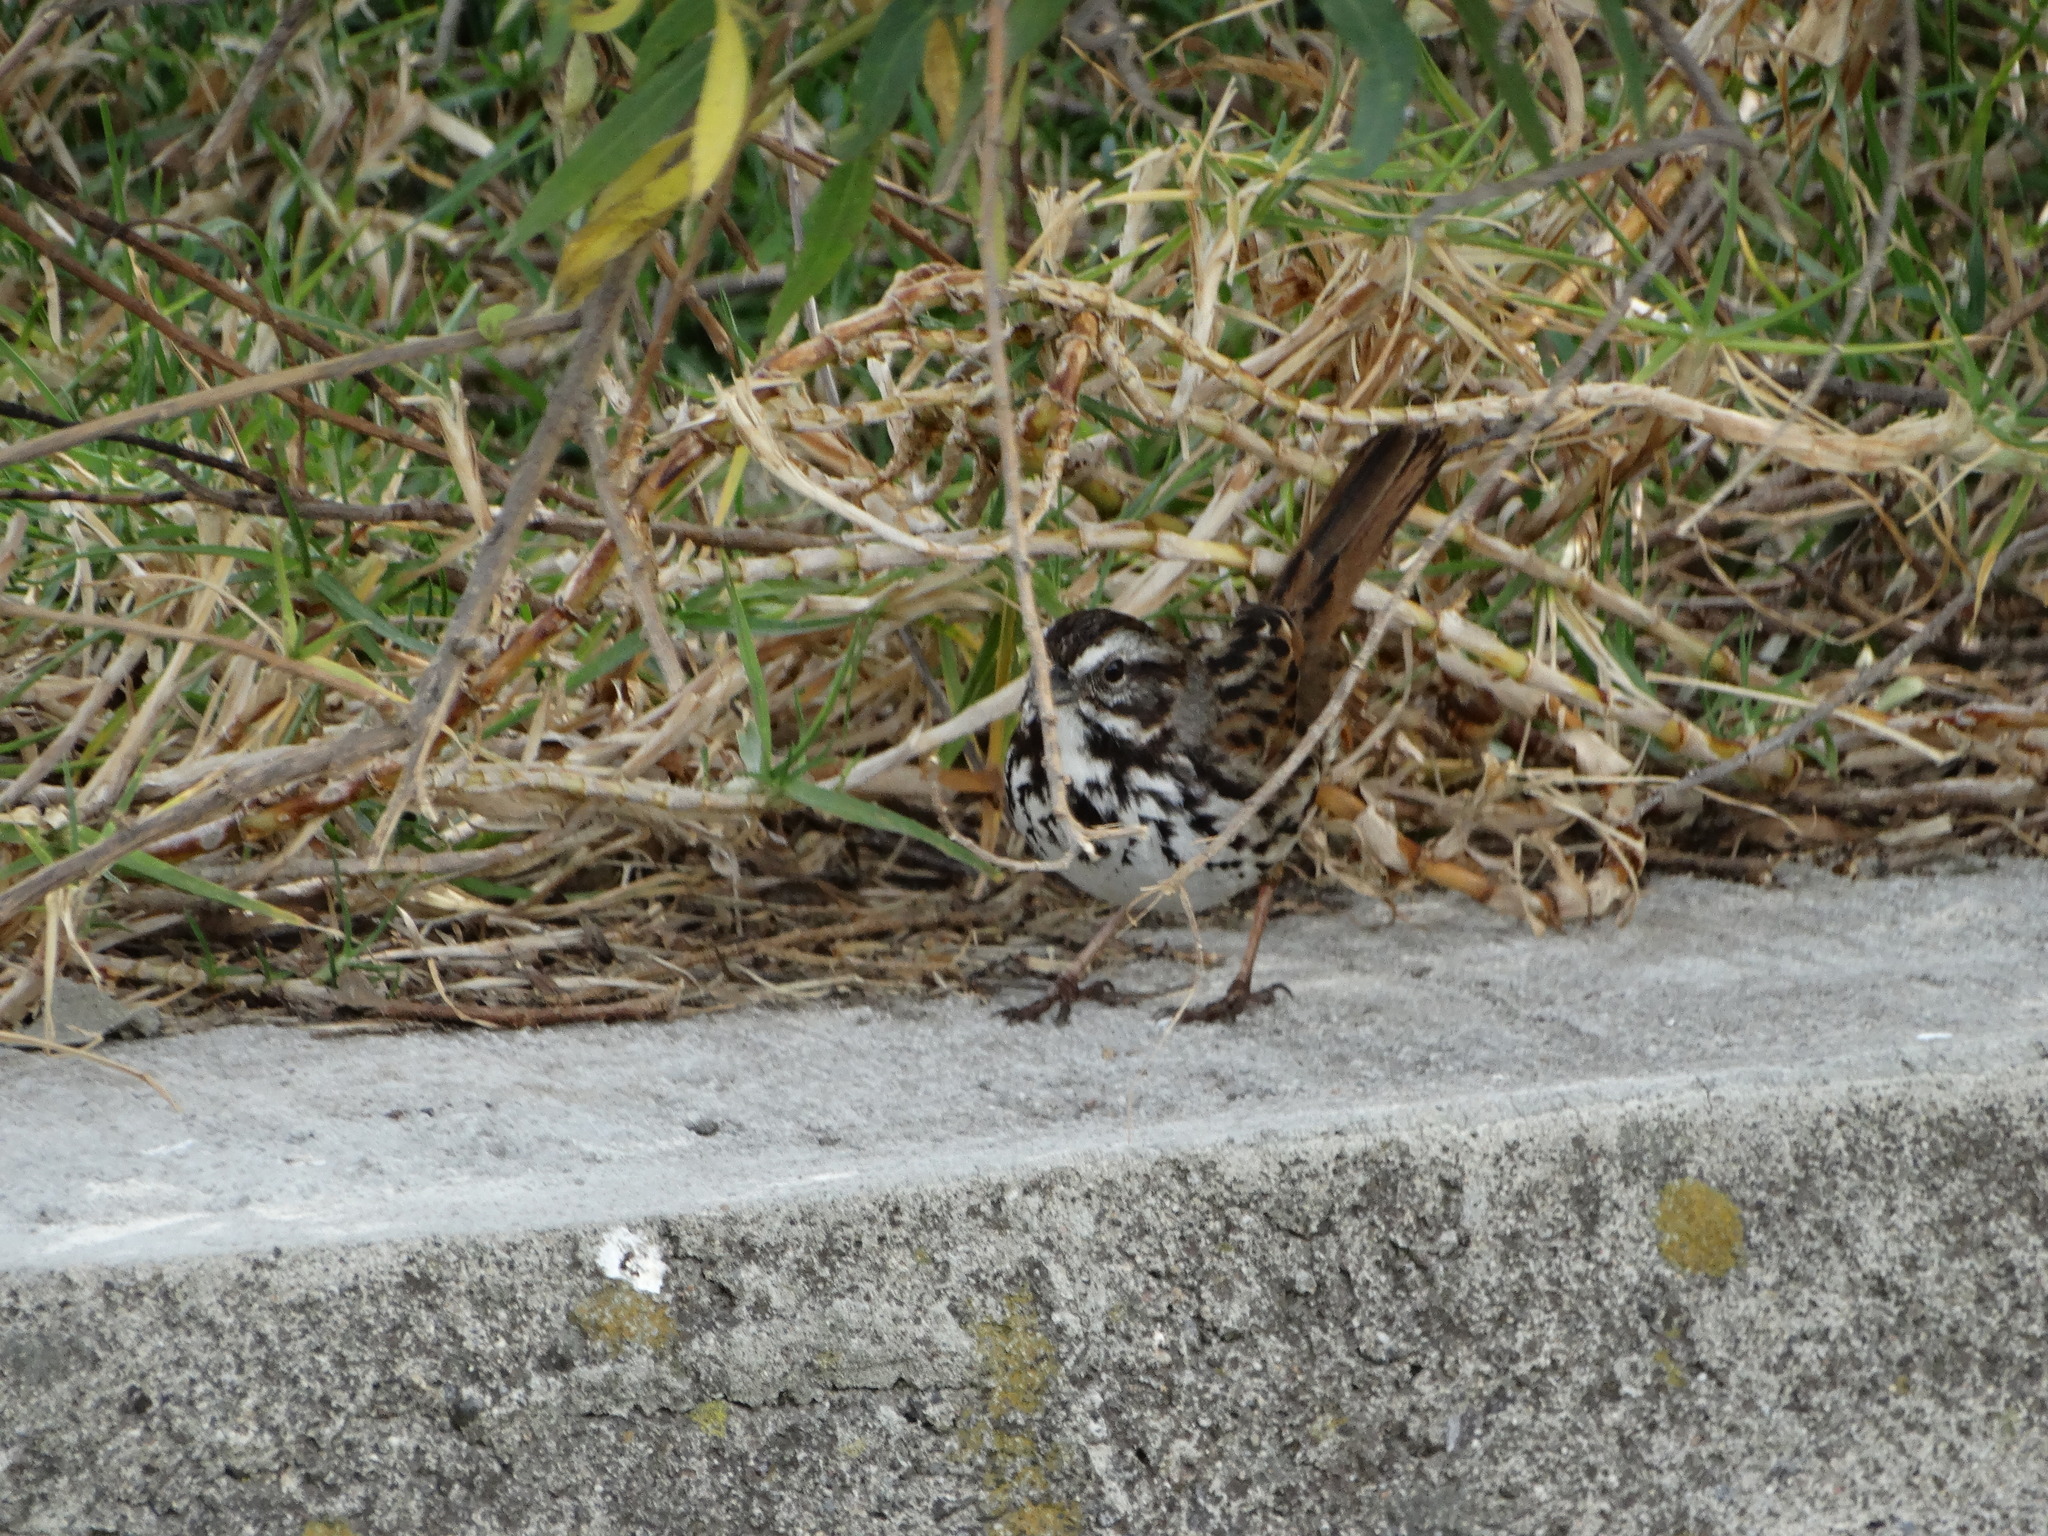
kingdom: Animalia
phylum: Chordata
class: Aves
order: Passeriformes
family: Passerellidae
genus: Melospiza
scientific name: Melospiza melodia
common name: Song sparrow
